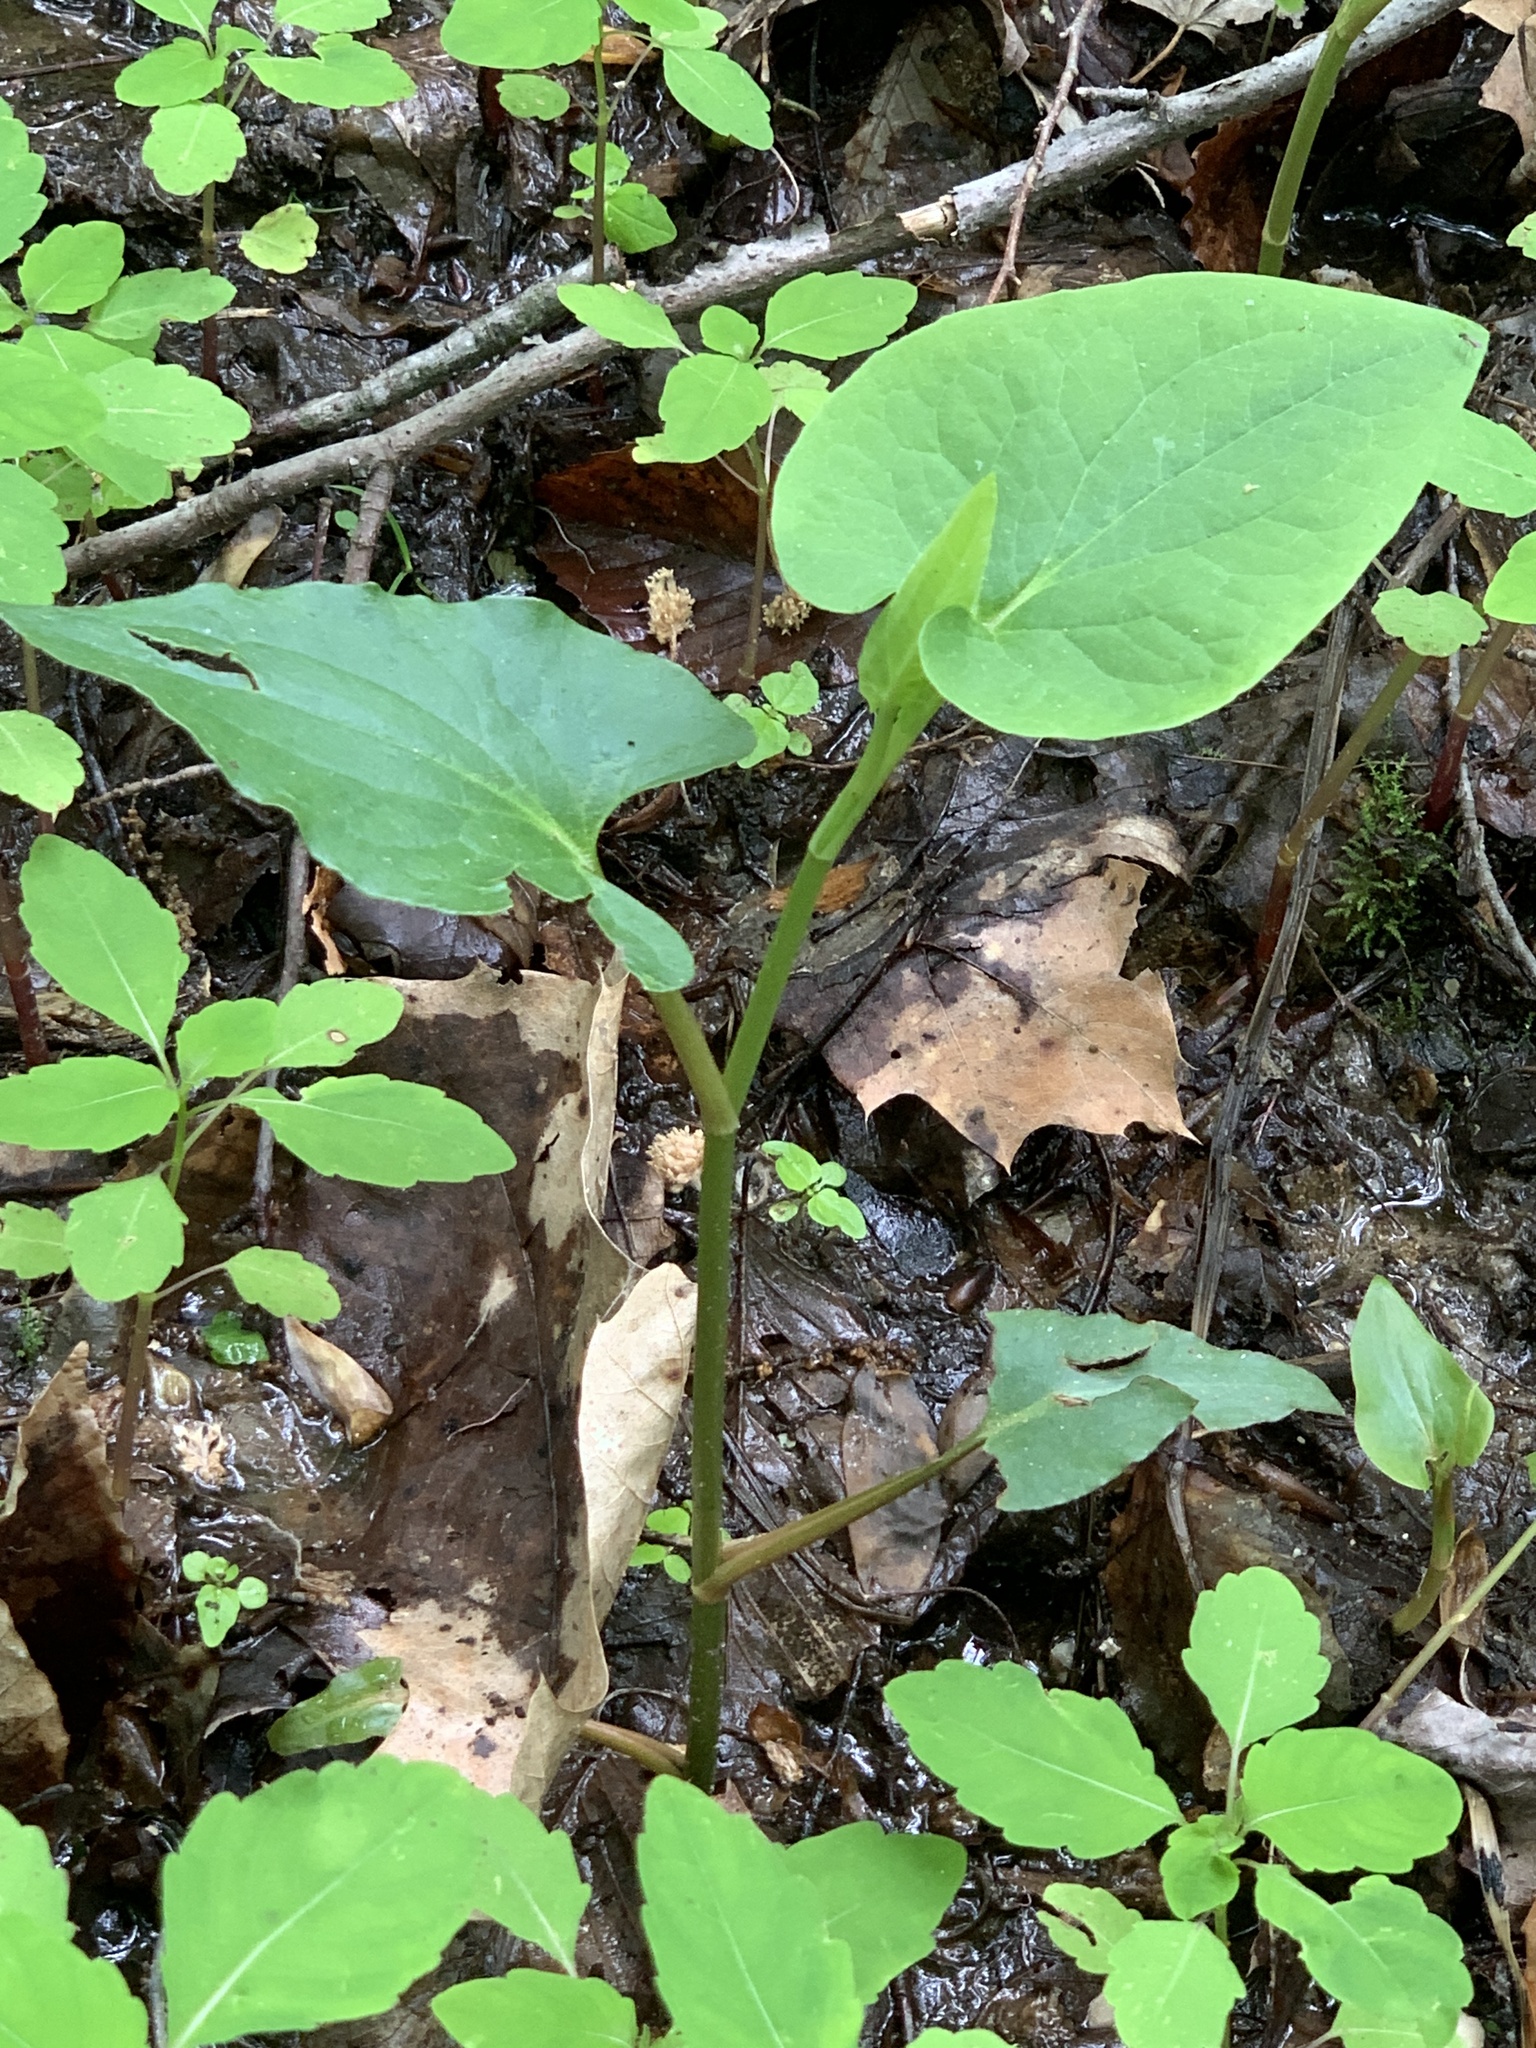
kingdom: Plantae
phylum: Tracheophyta
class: Magnoliopsida
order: Piperales
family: Saururaceae
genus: Saururus
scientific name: Saururus cernuus
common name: Lizard's-tail
